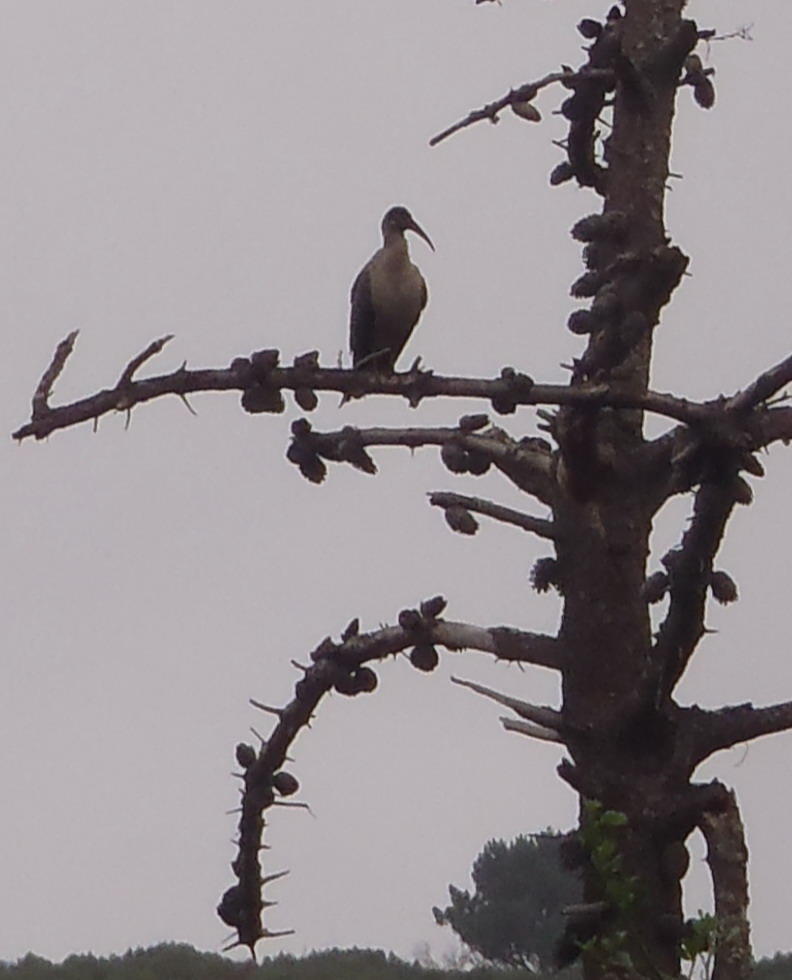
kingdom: Animalia
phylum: Chordata
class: Aves
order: Pelecaniformes
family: Threskiornithidae
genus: Bostrychia
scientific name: Bostrychia hagedash
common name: Hadada ibis
